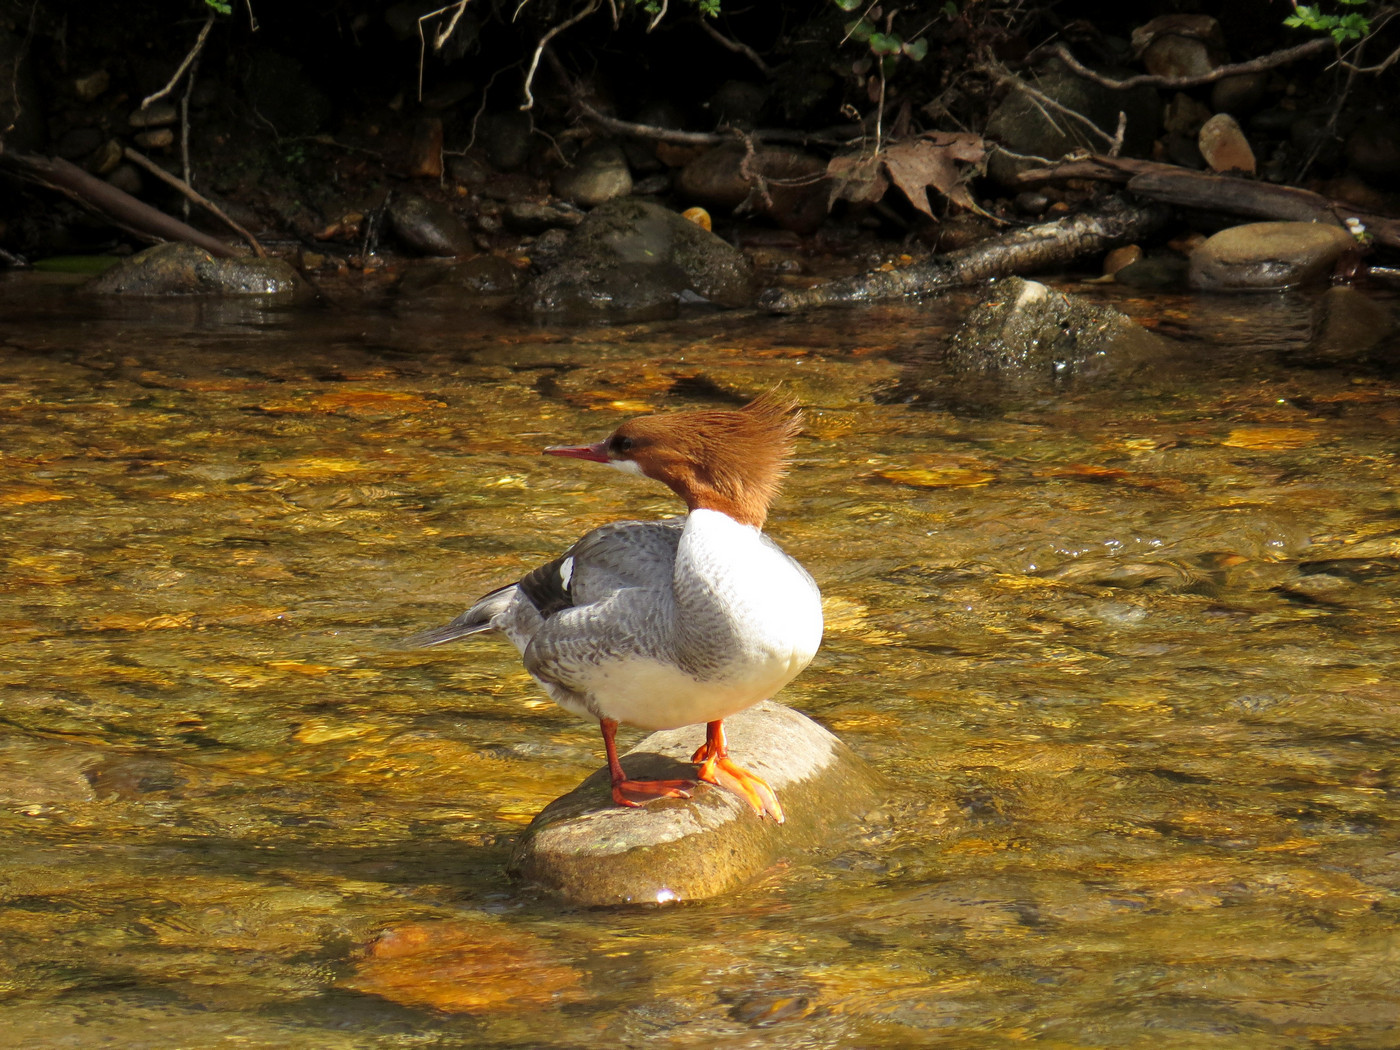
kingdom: Animalia
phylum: Chordata
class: Aves
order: Anseriformes
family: Anatidae
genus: Mergus
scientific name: Mergus merganser
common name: Common merganser
